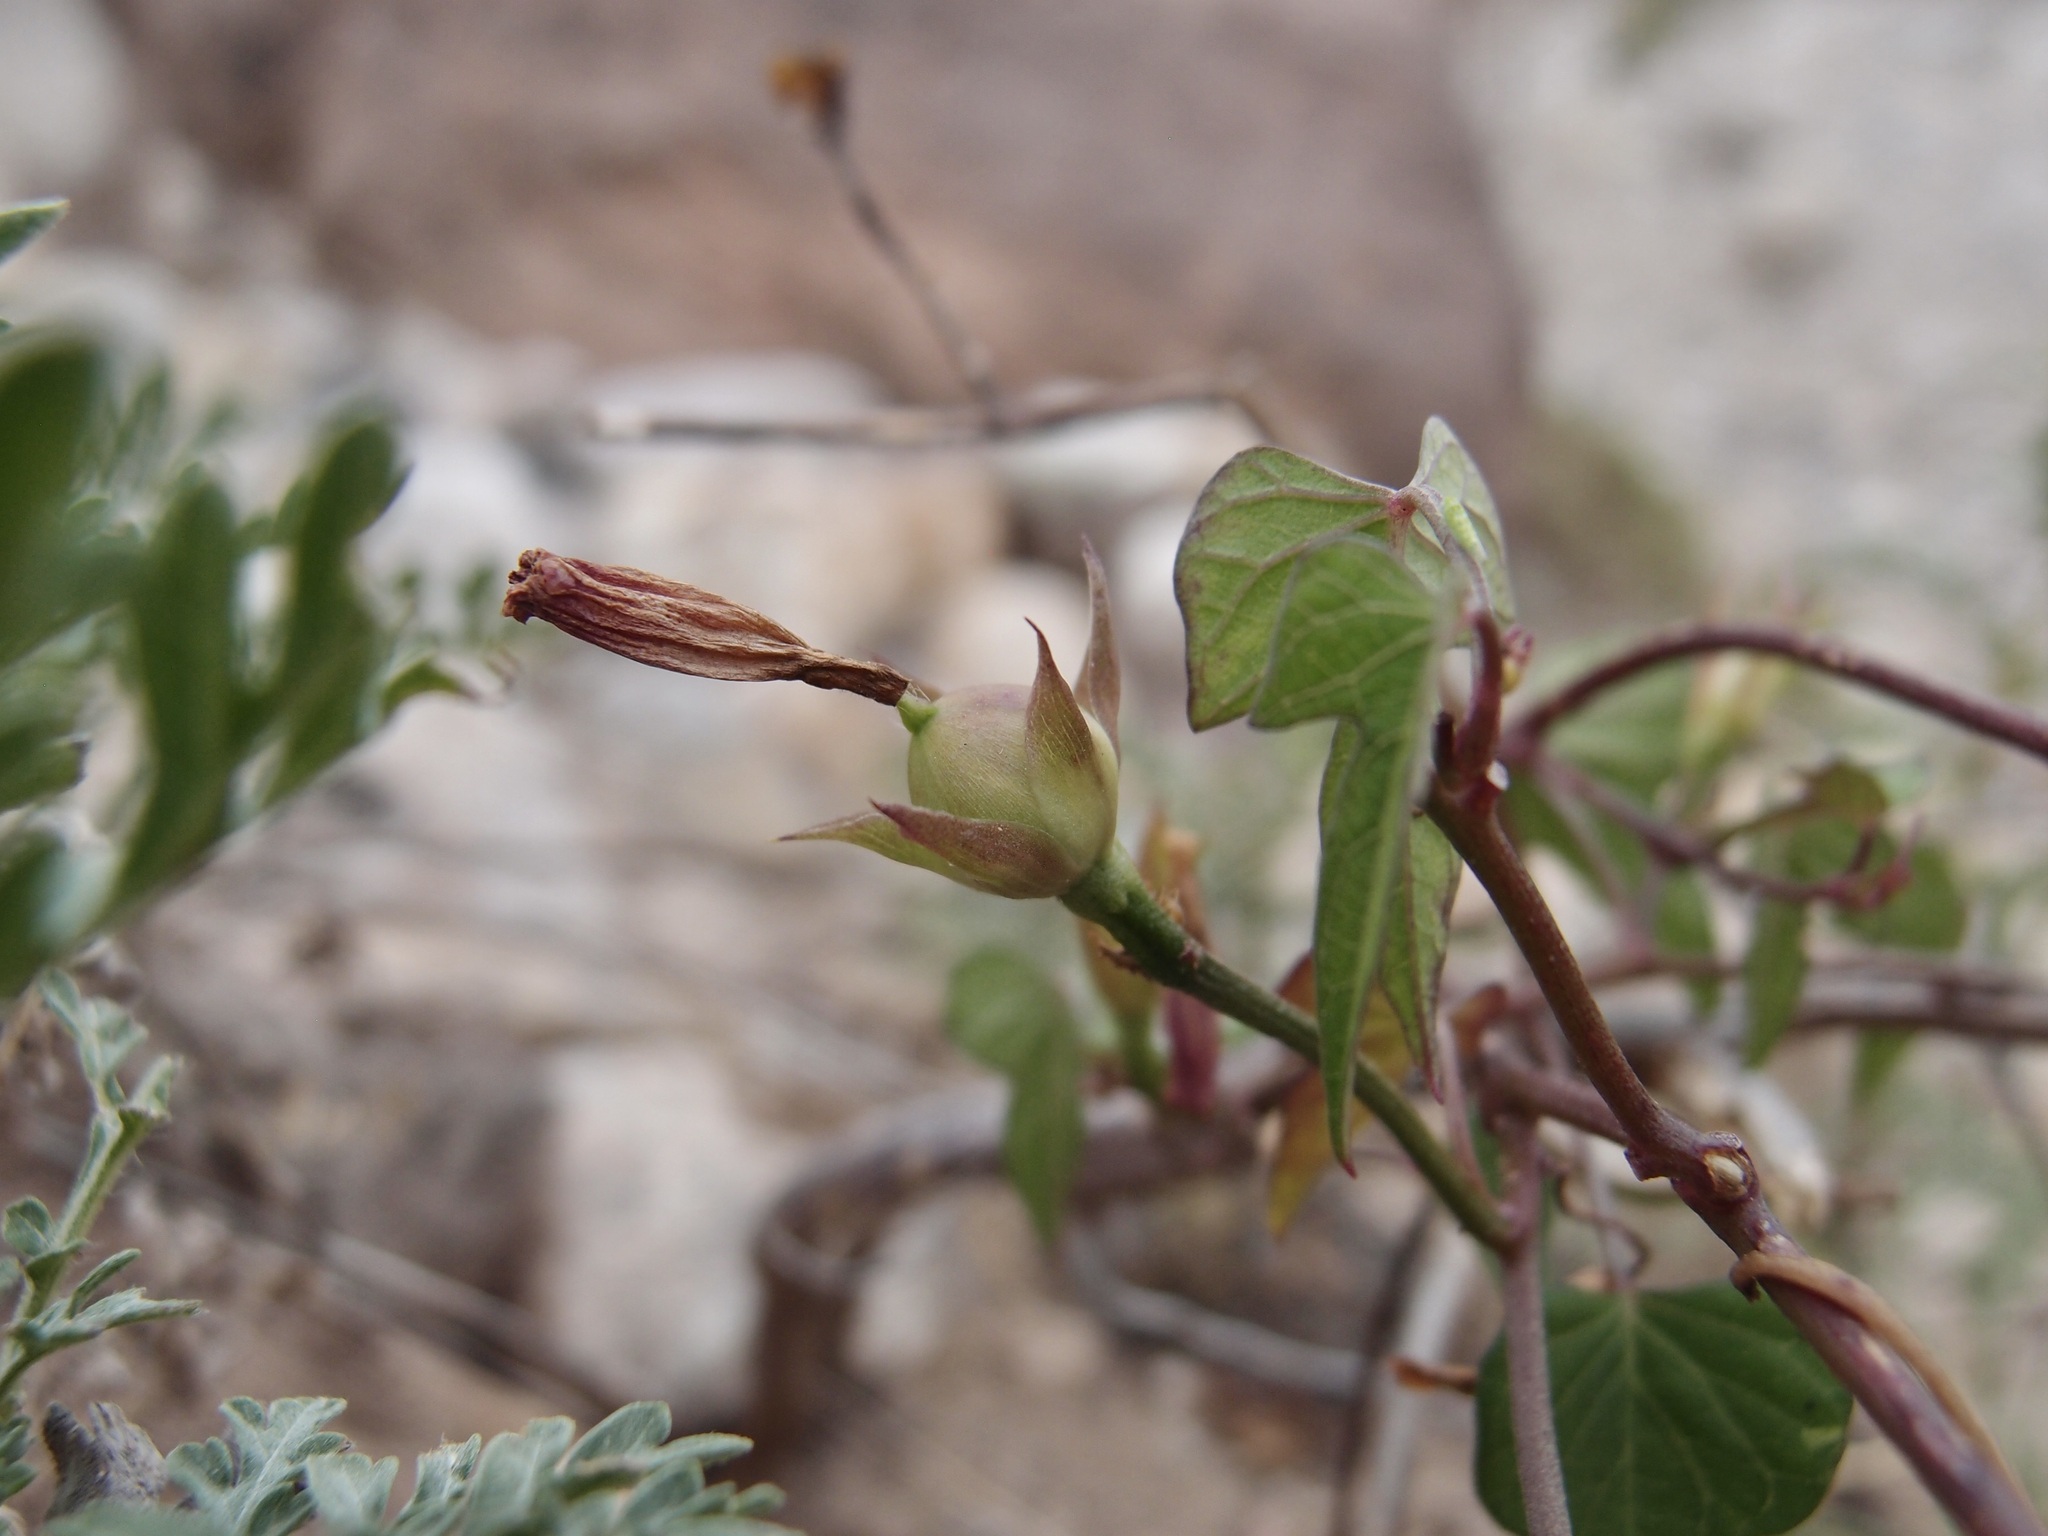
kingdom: Plantae
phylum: Tracheophyta
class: Magnoliopsida
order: Solanales
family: Convolvulaceae
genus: Ipomoea
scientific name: Ipomoea leucantha
